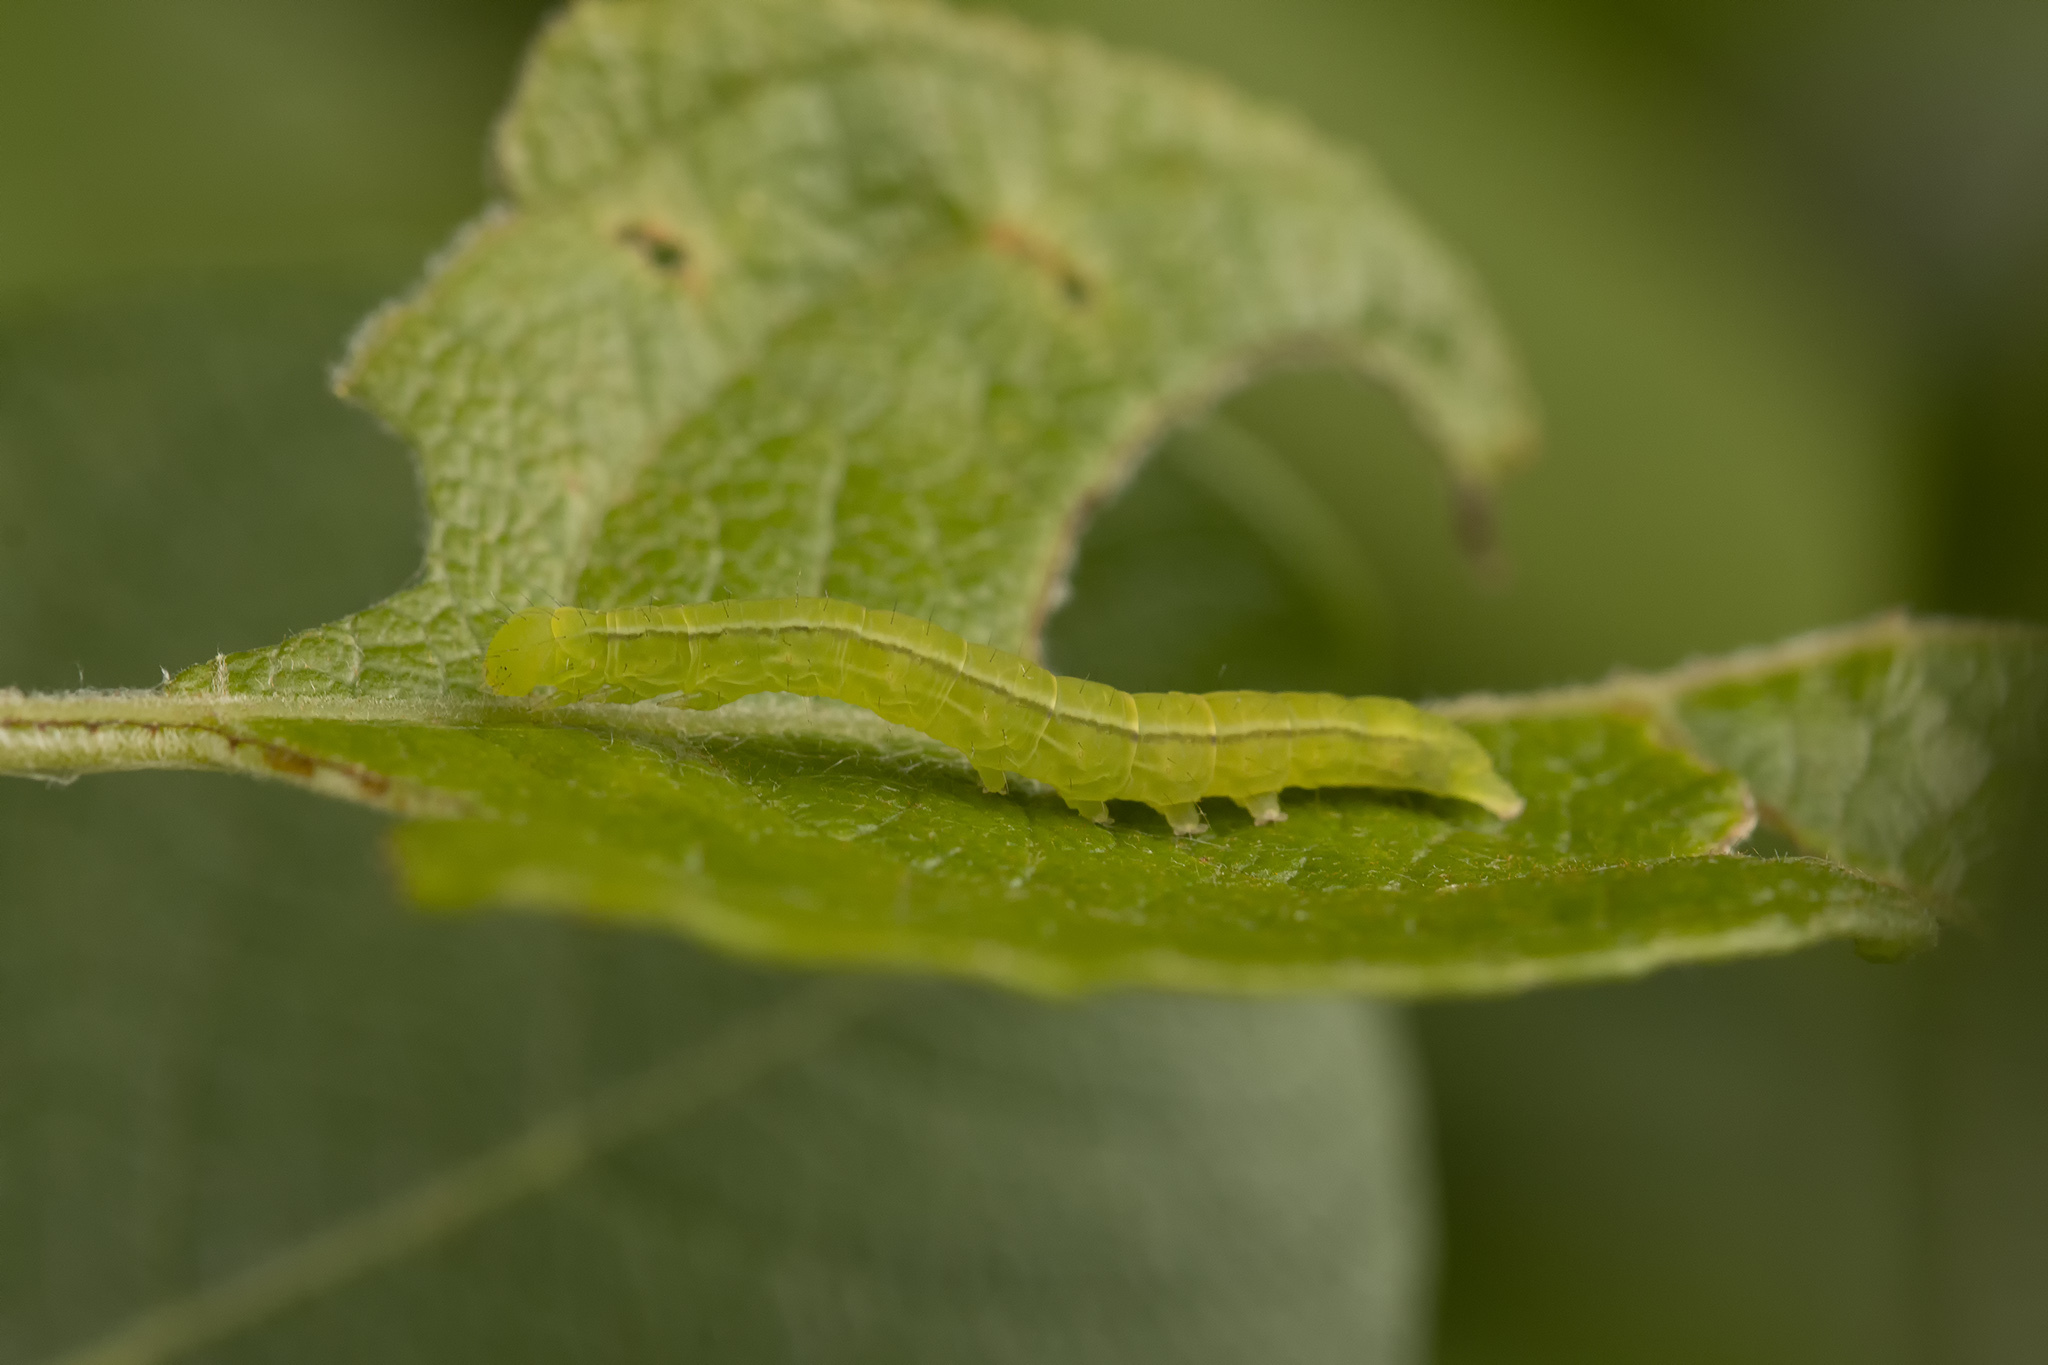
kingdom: Animalia
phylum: Arthropoda
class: Insecta
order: Lepidoptera
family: Erebidae
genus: Scoliopteryx
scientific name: Scoliopteryx libatrix
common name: Herald
